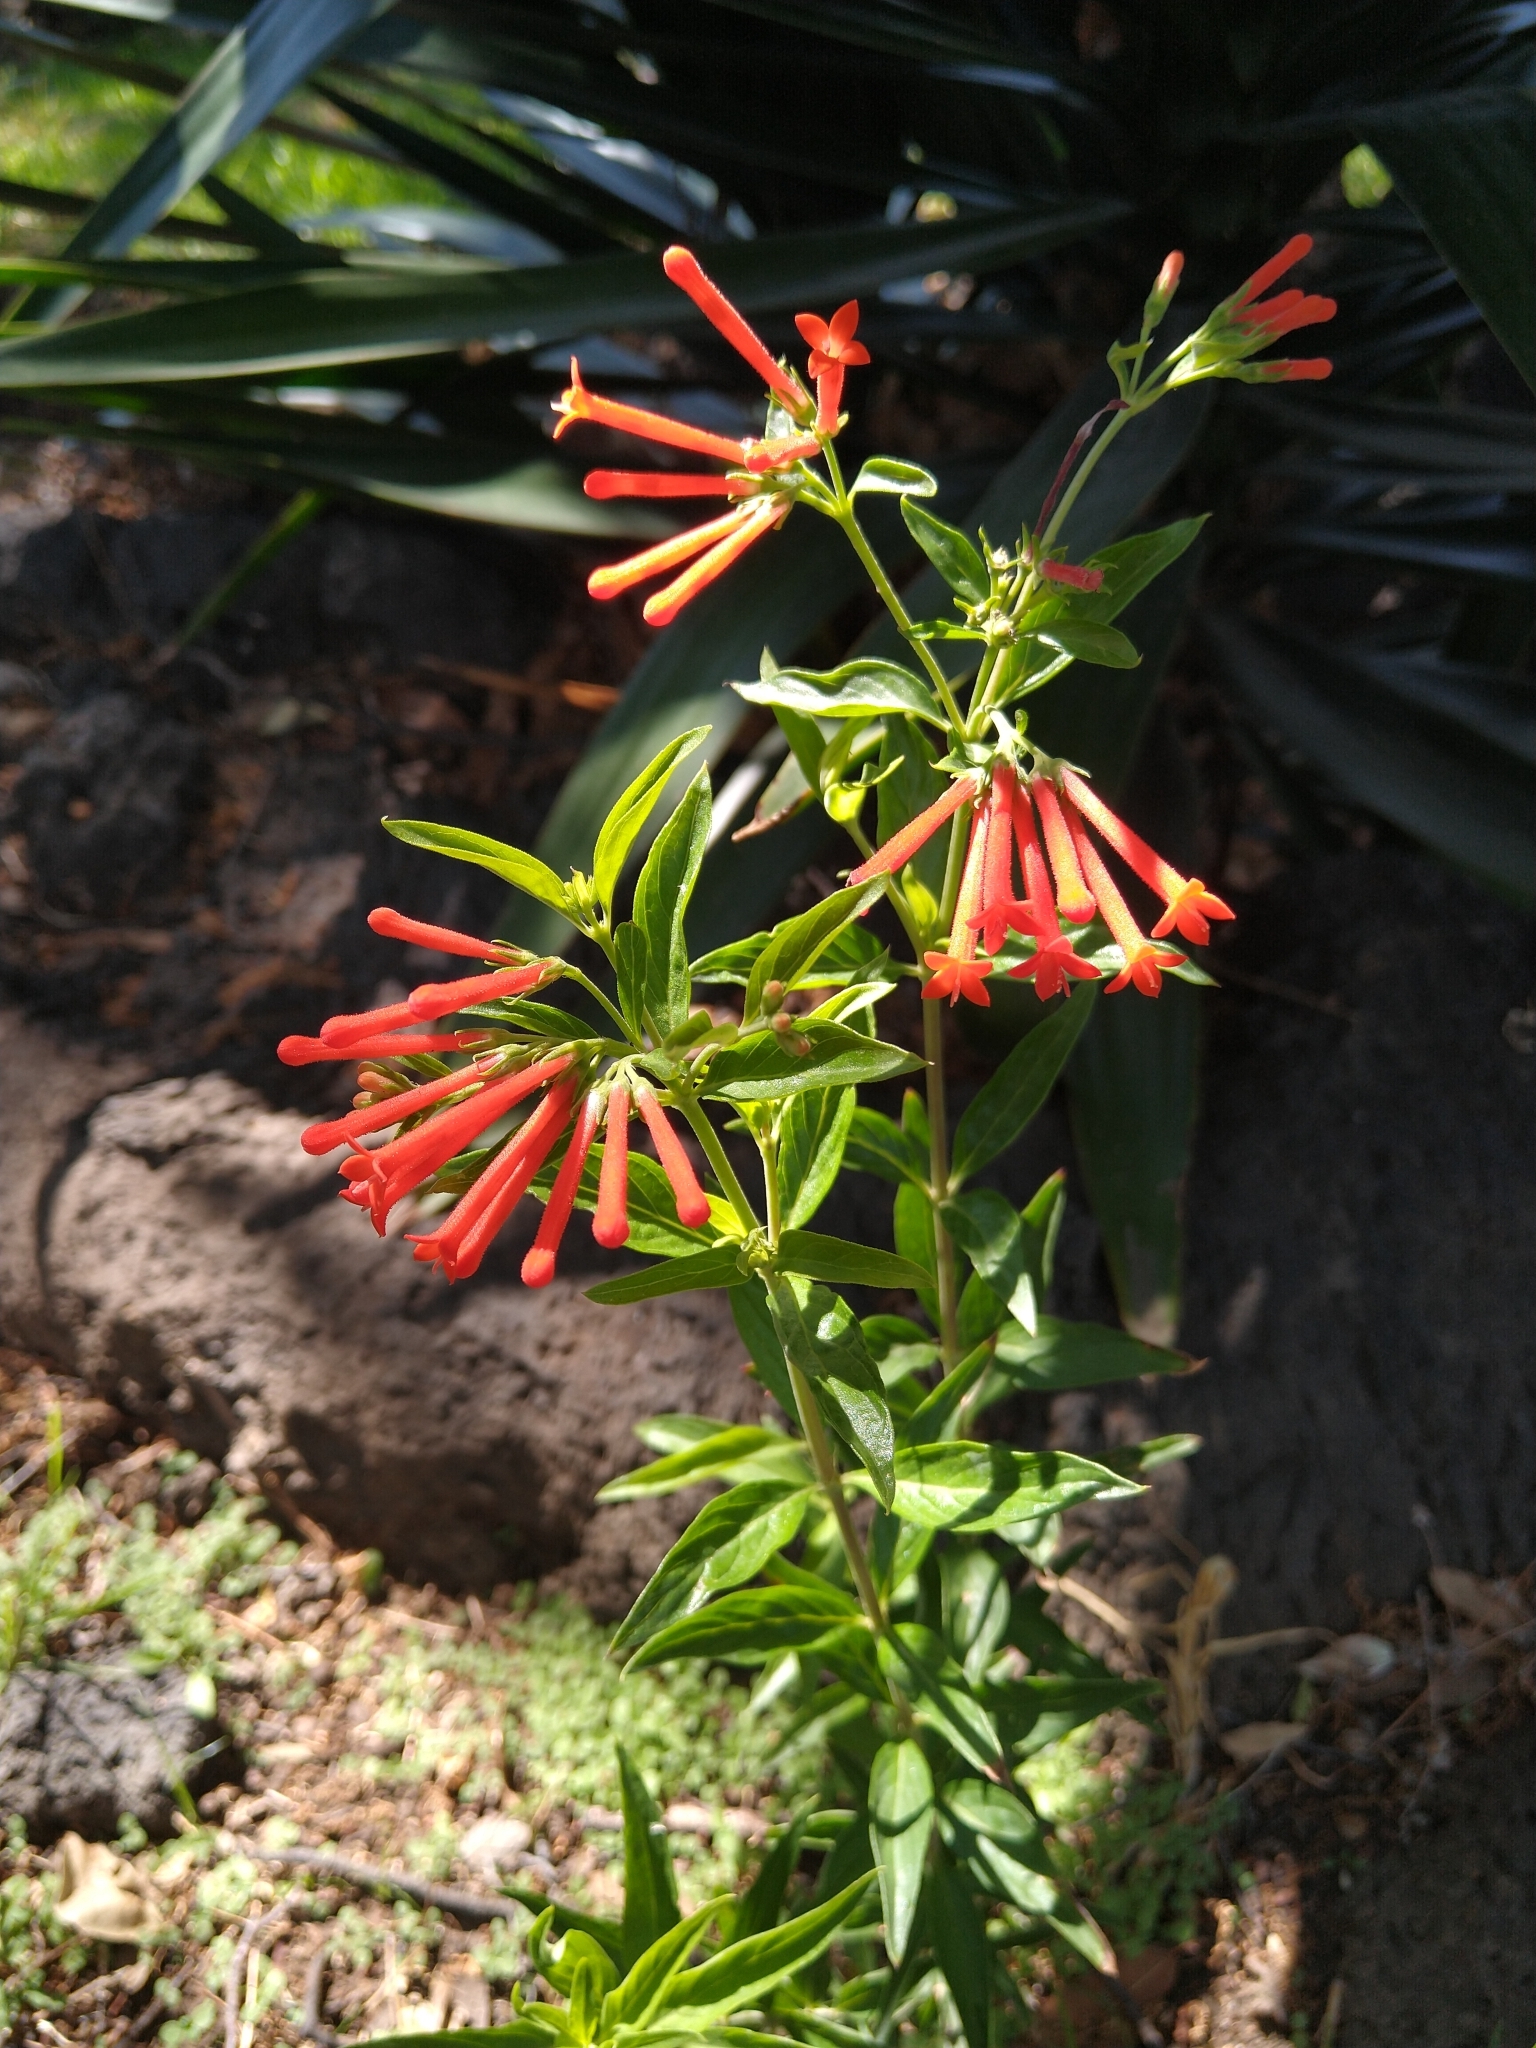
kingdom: Plantae
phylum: Tracheophyta
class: Magnoliopsida
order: Gentianales
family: Rubiaceae
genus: Bouvardia
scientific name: Bouvardia ternifolia
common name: Scarlet bouvardia
